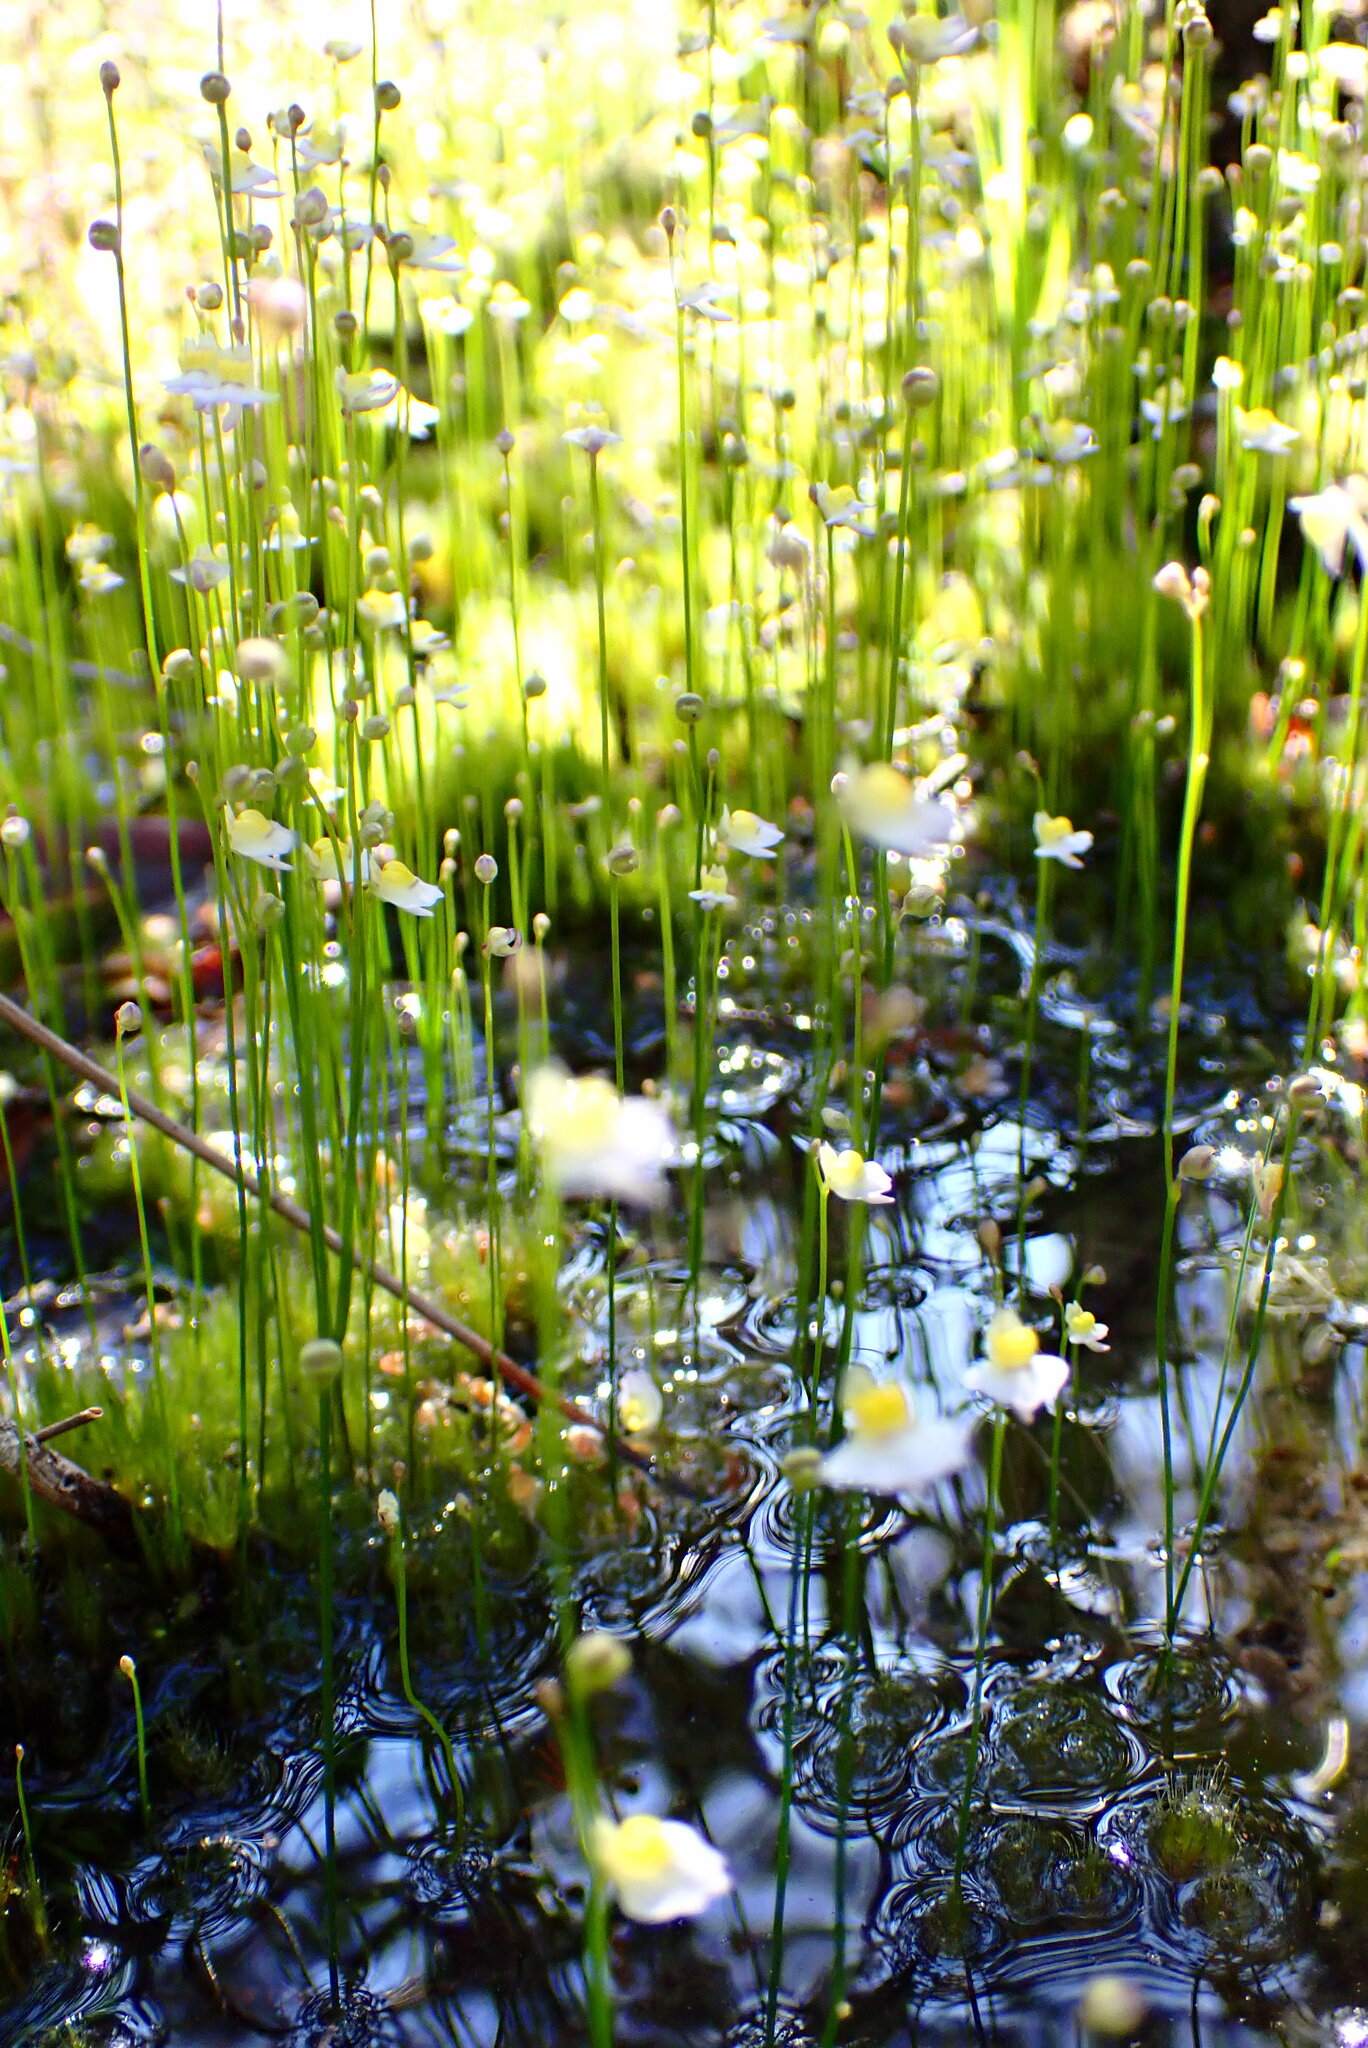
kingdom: Plantae
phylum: Tracheophyta
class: Magnoliopsida
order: Lamiales
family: Lentibulariaceae
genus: Utricularia
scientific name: Utricularia bisquamata
